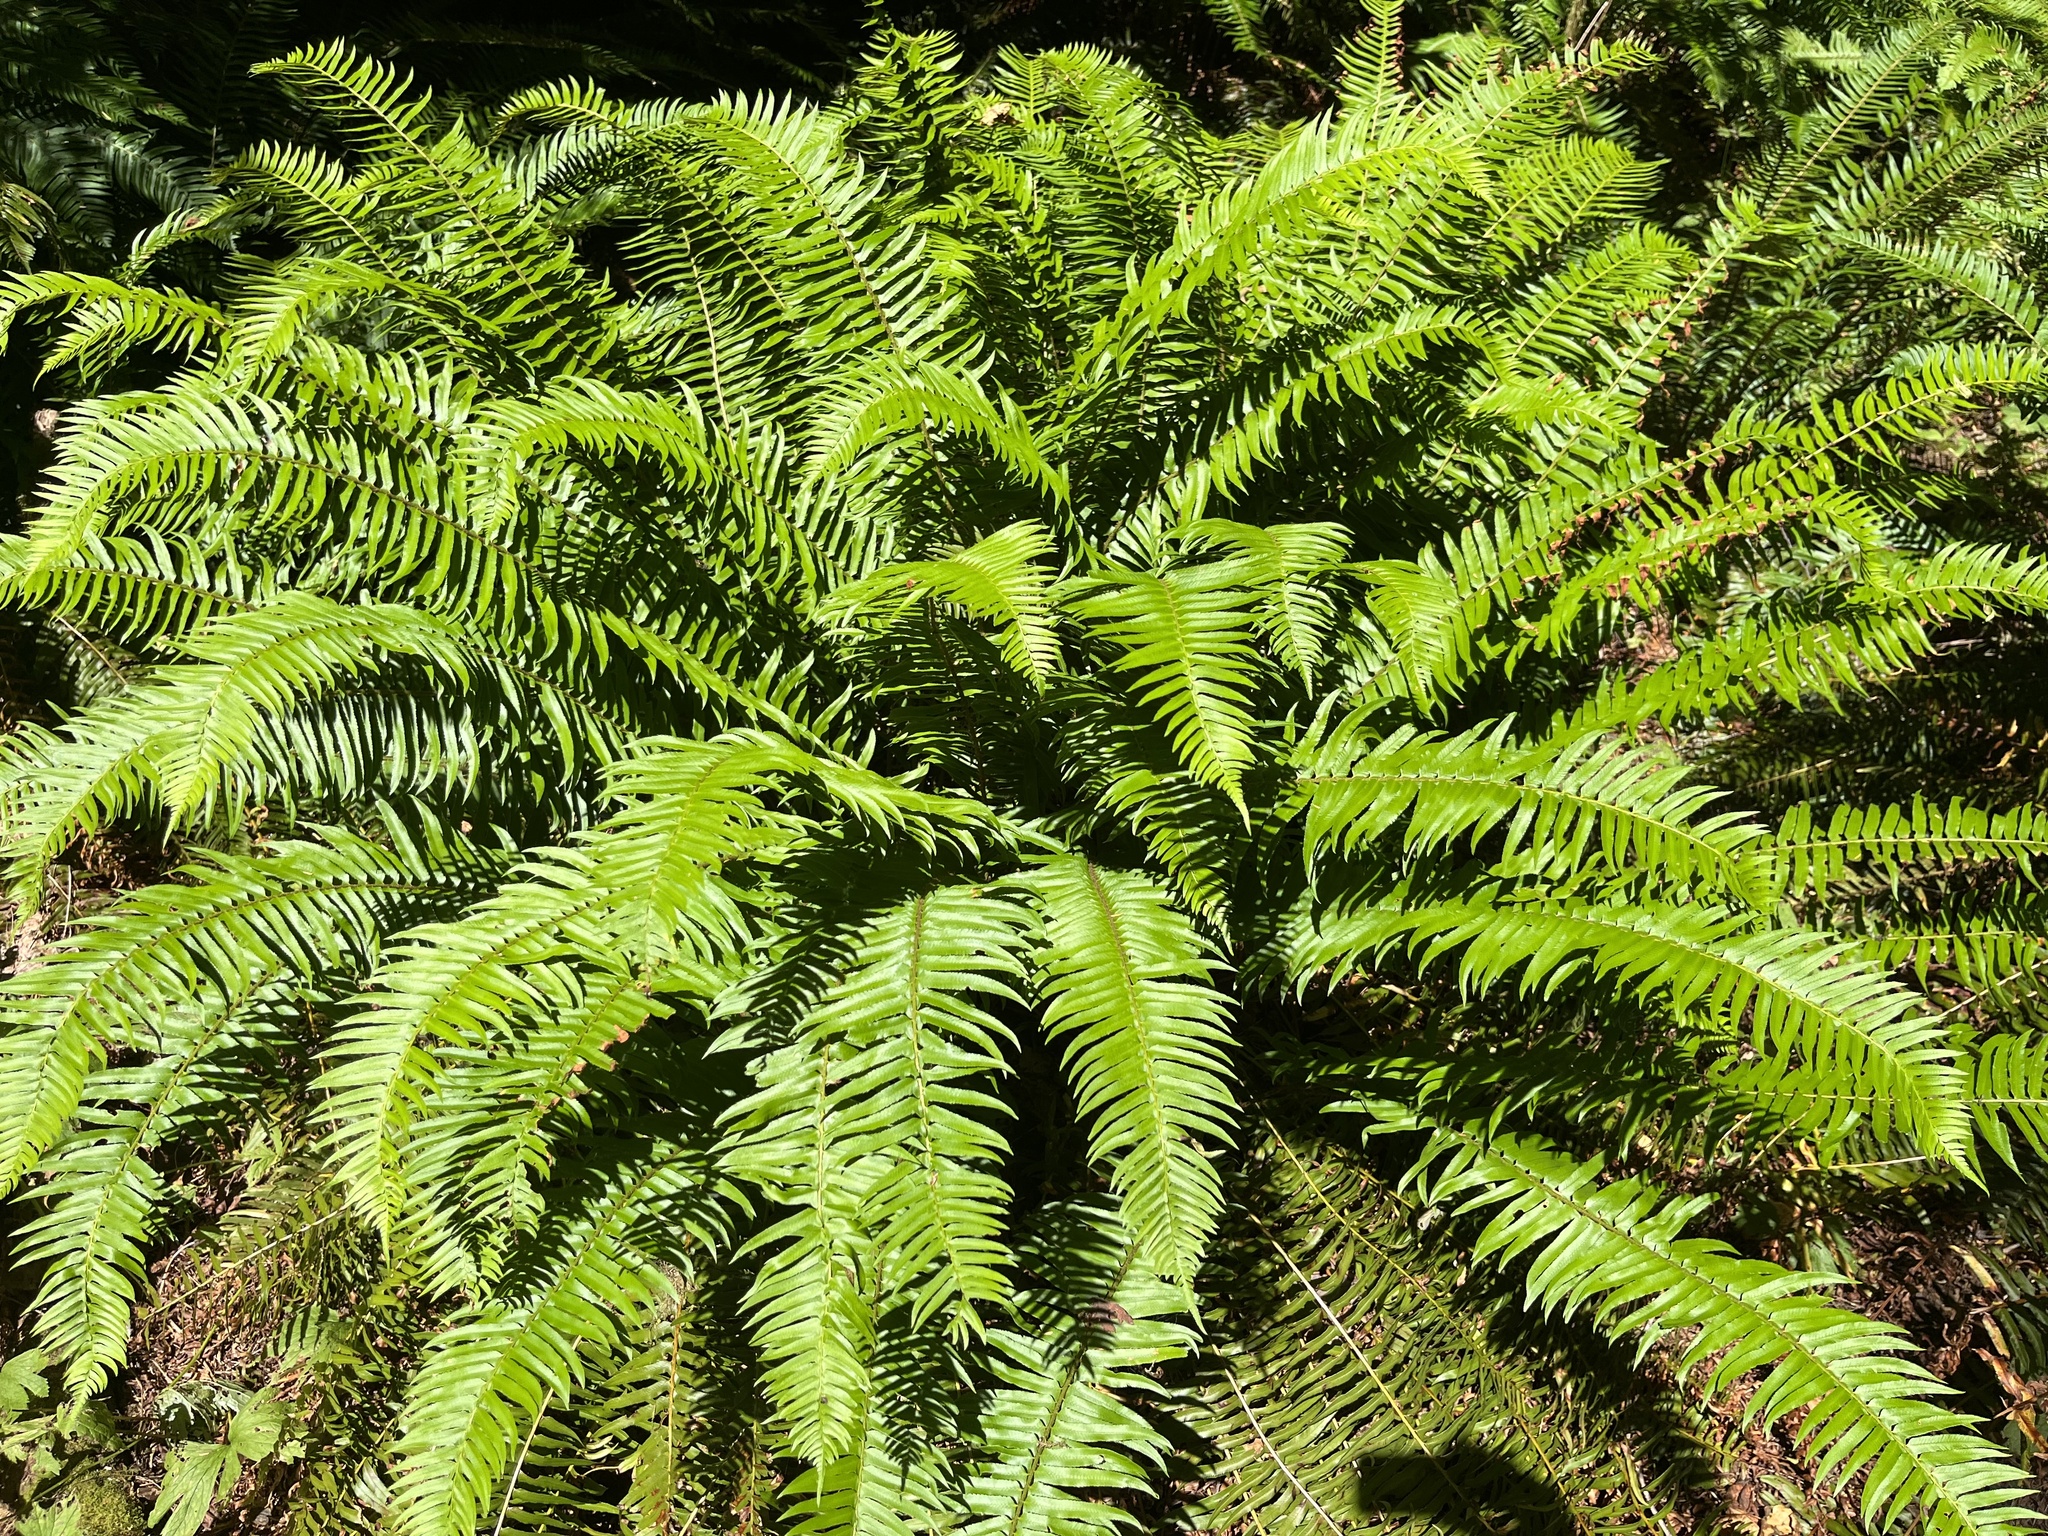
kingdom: Plantae
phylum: Tracheophyta
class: Polypodiopsida
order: Polypodiales
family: Dryopteridaceae
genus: Polystichum
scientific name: Polystichum munitum
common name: Western sword-fern
